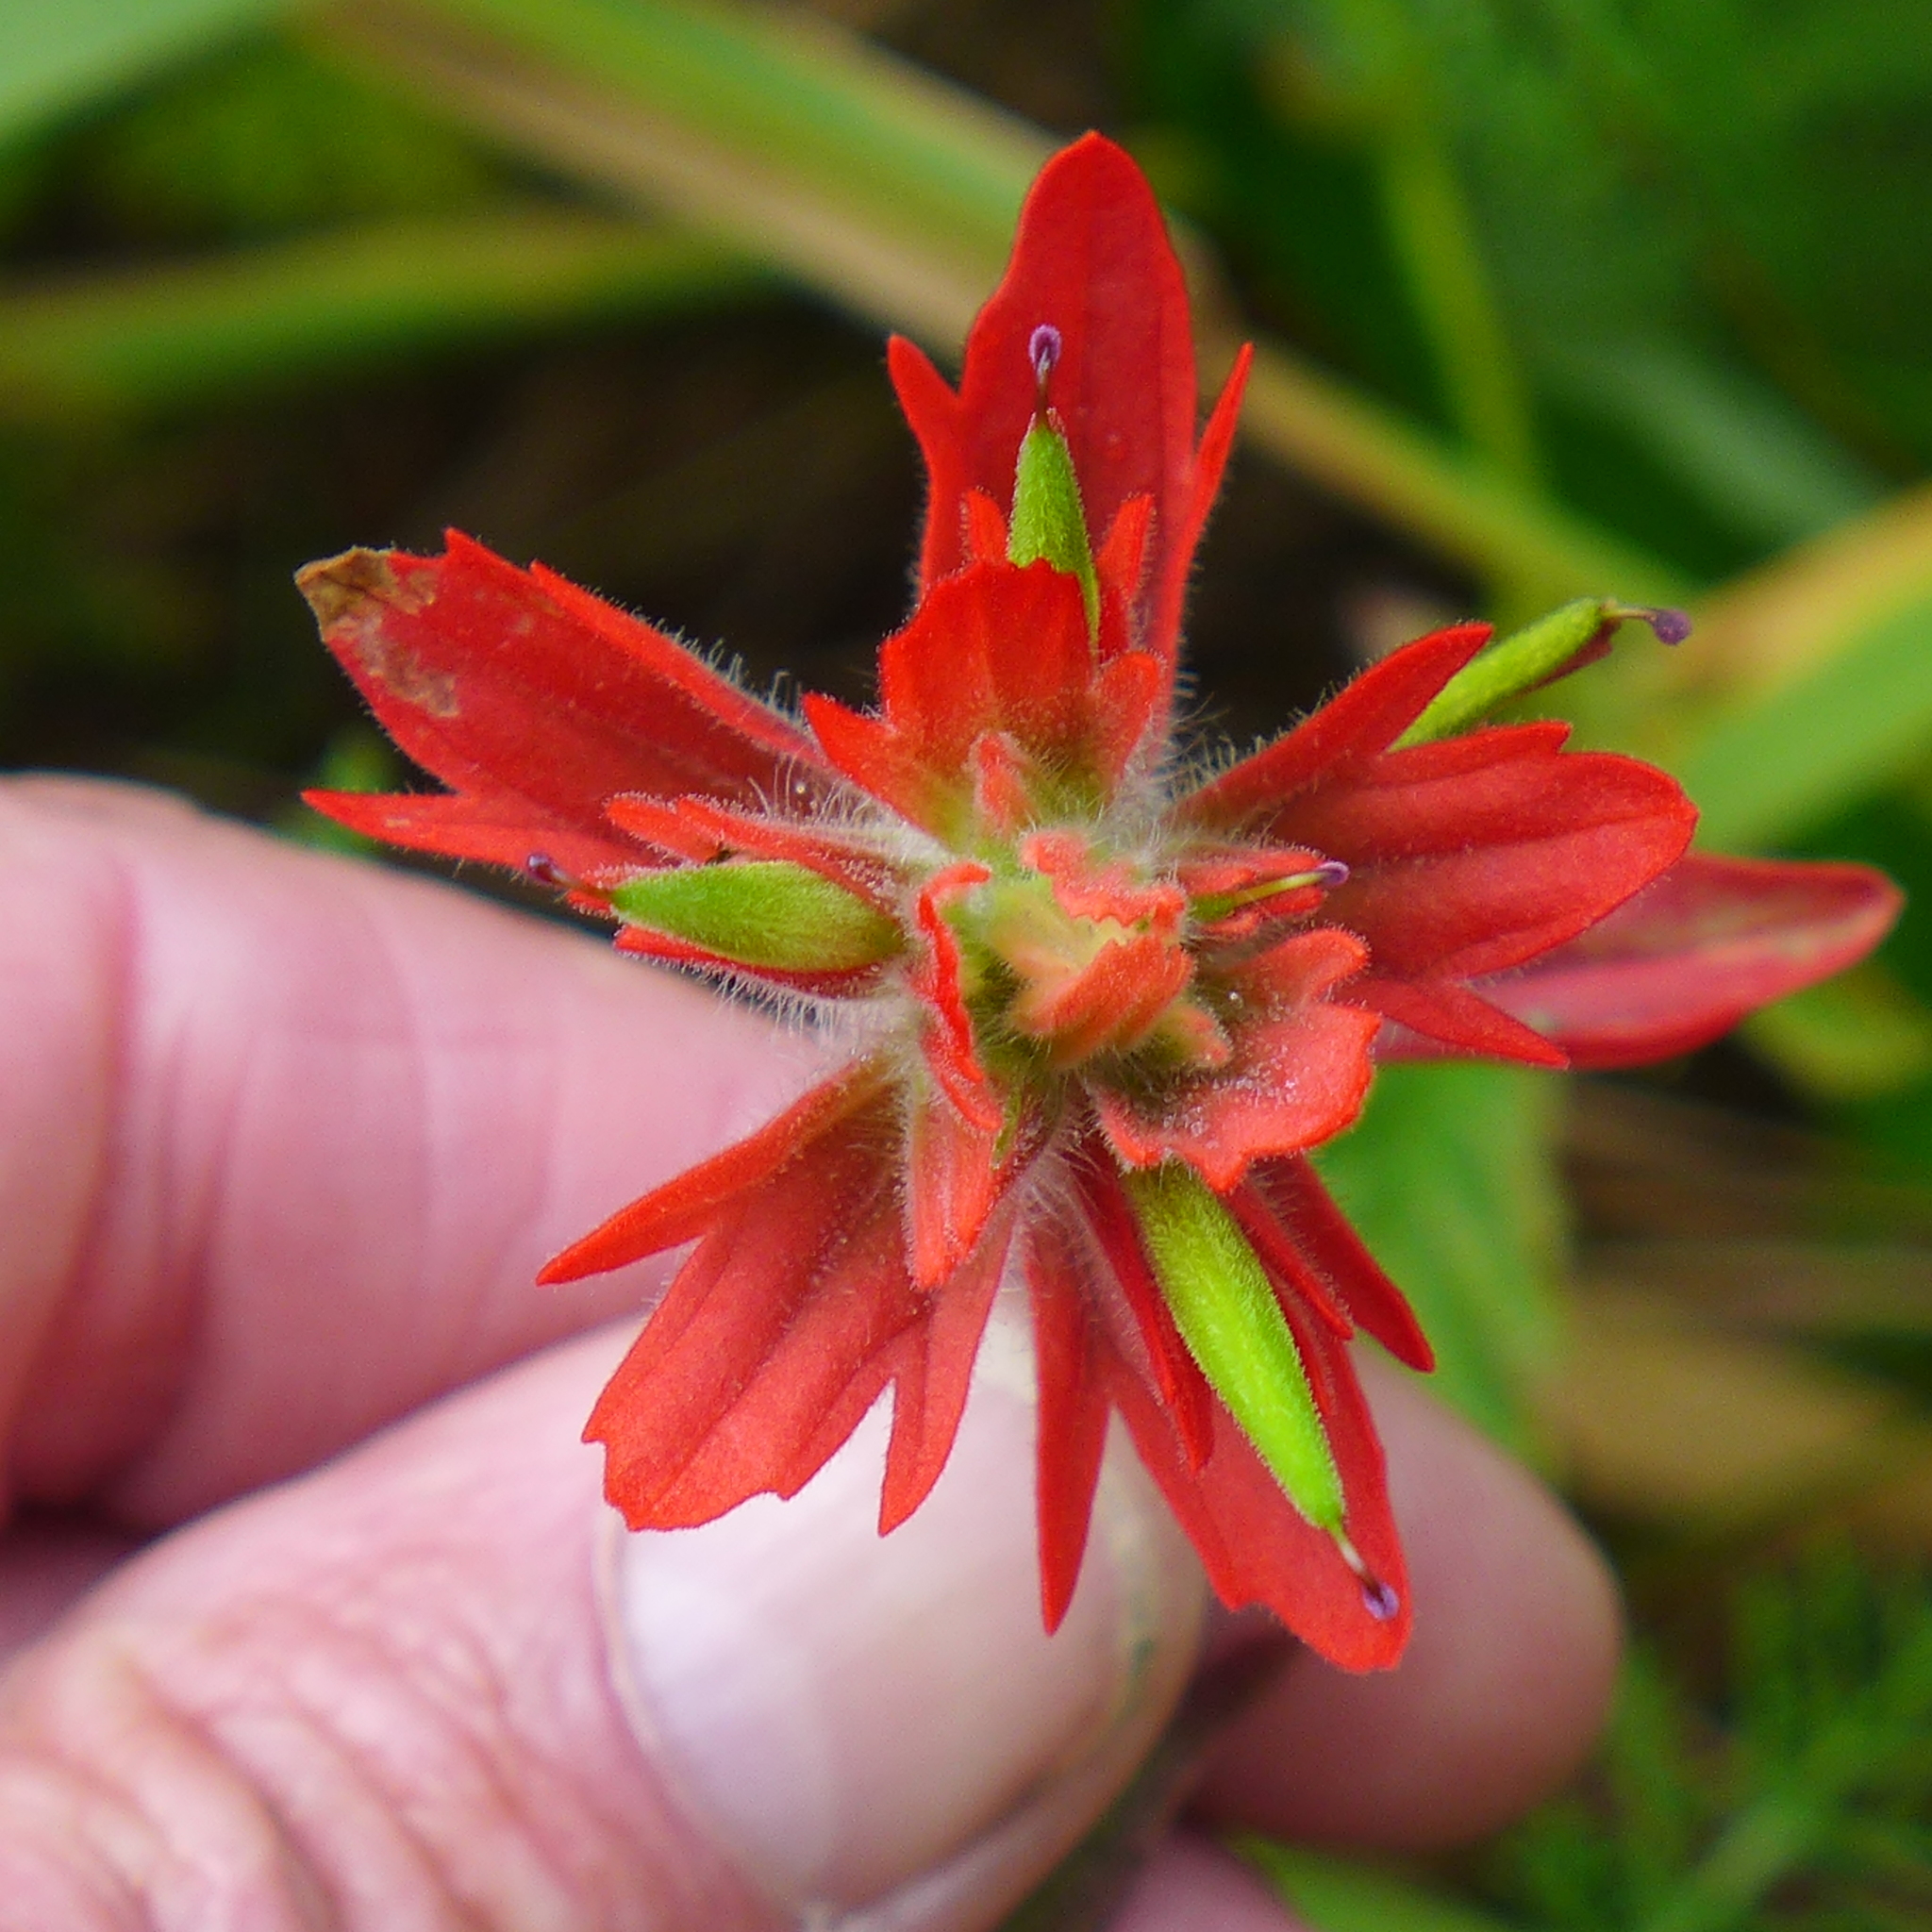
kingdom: Plantae
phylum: Tracheophyta
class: Magnoliopsida
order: Lamiales
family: Orobanchaceae
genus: Castilleja
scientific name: Castilleja miniata
